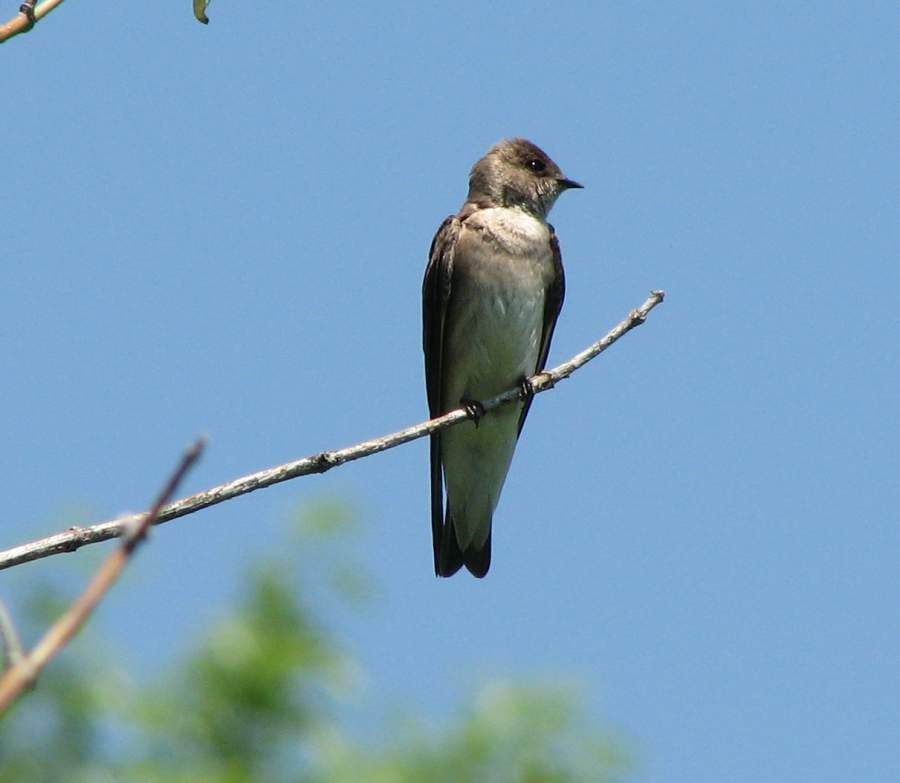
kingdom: Animalia
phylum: Chordata
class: Aves
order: Passeriformes
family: Hirundinidae
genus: Stelgidopteryx
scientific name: Stelgidopteryx serripennis
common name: Northern rough-winged swallow
